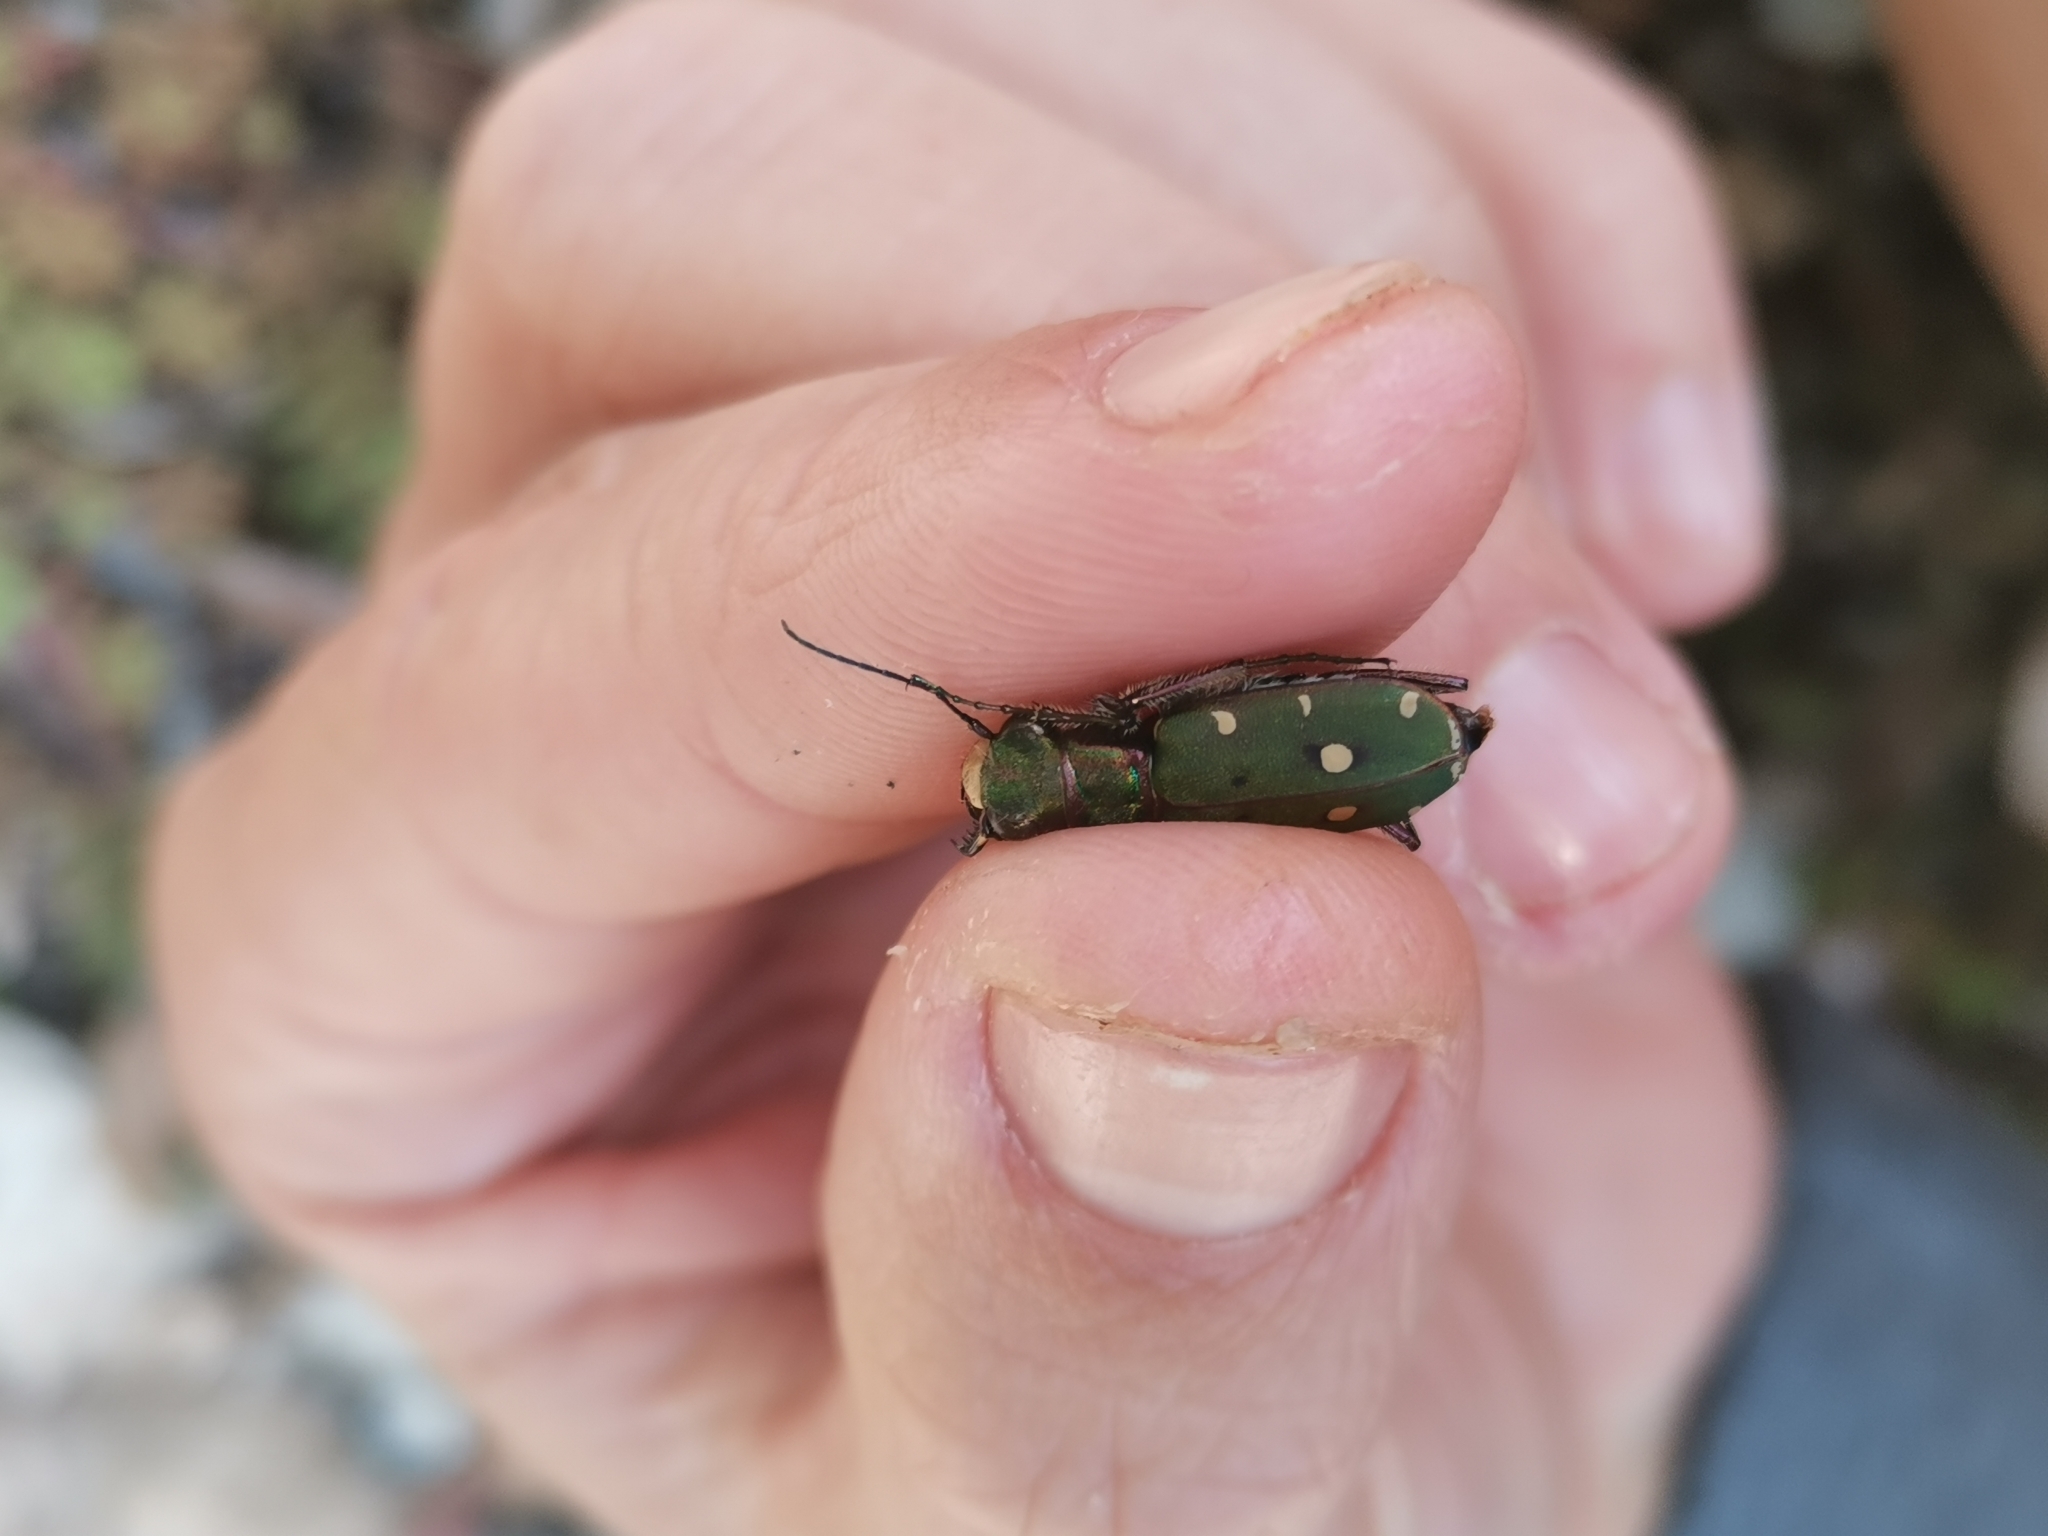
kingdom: Animalia
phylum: Arthropoda
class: Insecta
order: Coleoptera
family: Carabidae
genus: Cicindela
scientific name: Cicindela campestris
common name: Common tiger beetle
